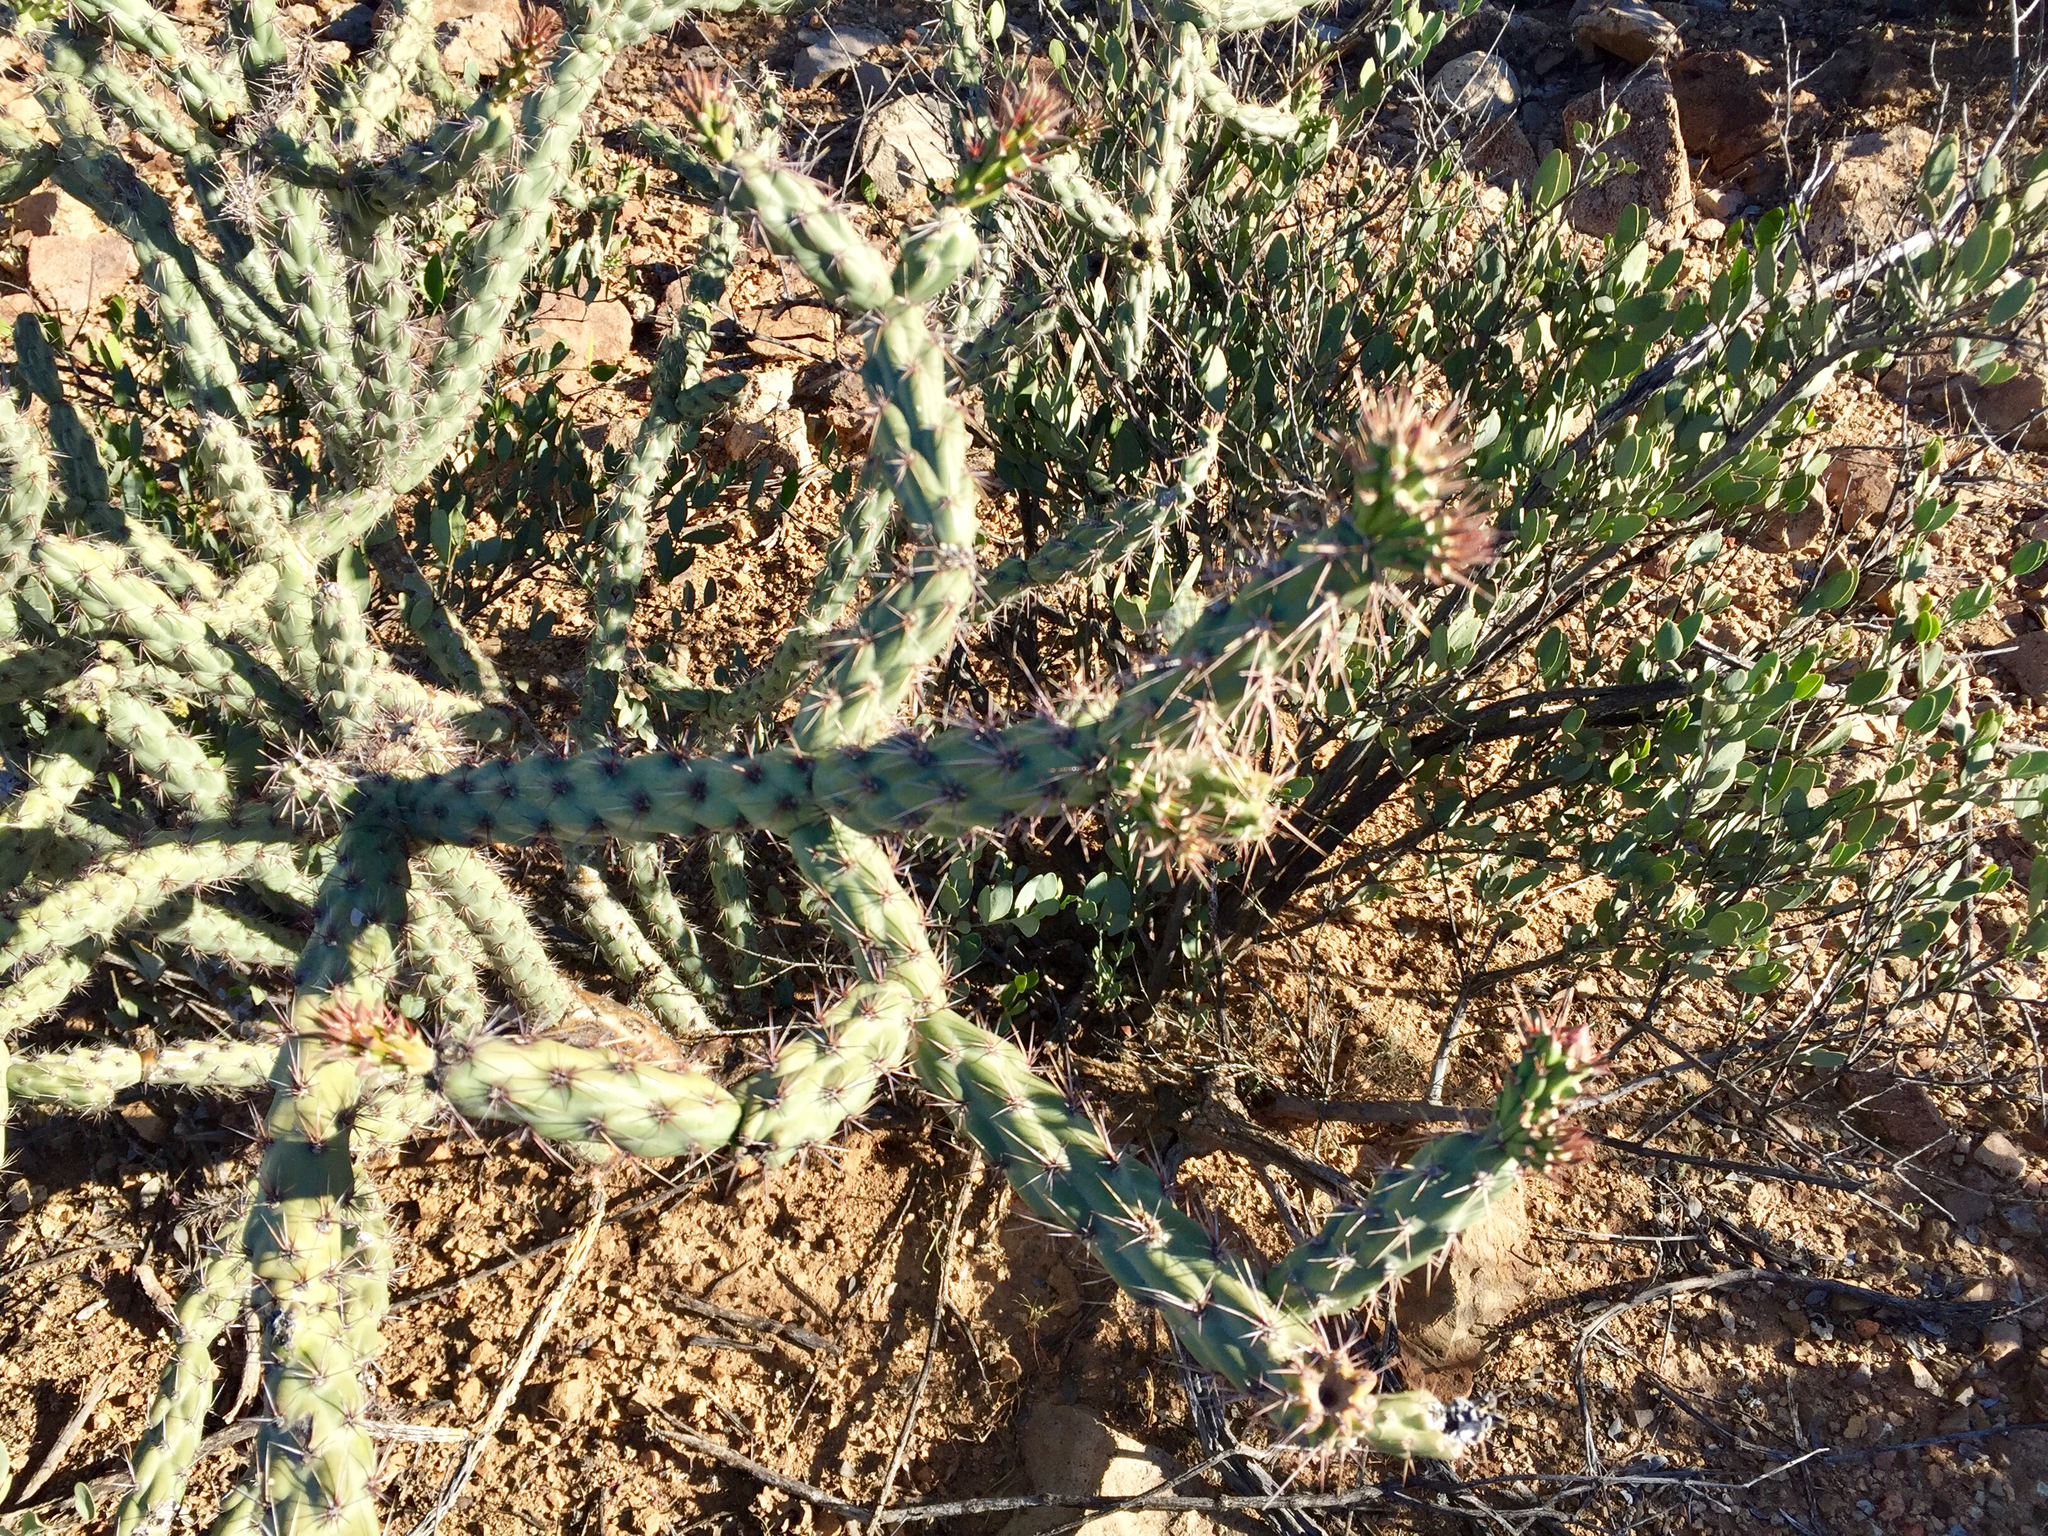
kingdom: Plantae
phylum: Tracheophyta
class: Magnoliopsida
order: Caryophyllales
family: Cactaceae
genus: Cylindropuntia
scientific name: Cylindropuntia acanthocarpa
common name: Buckhorn cholla
